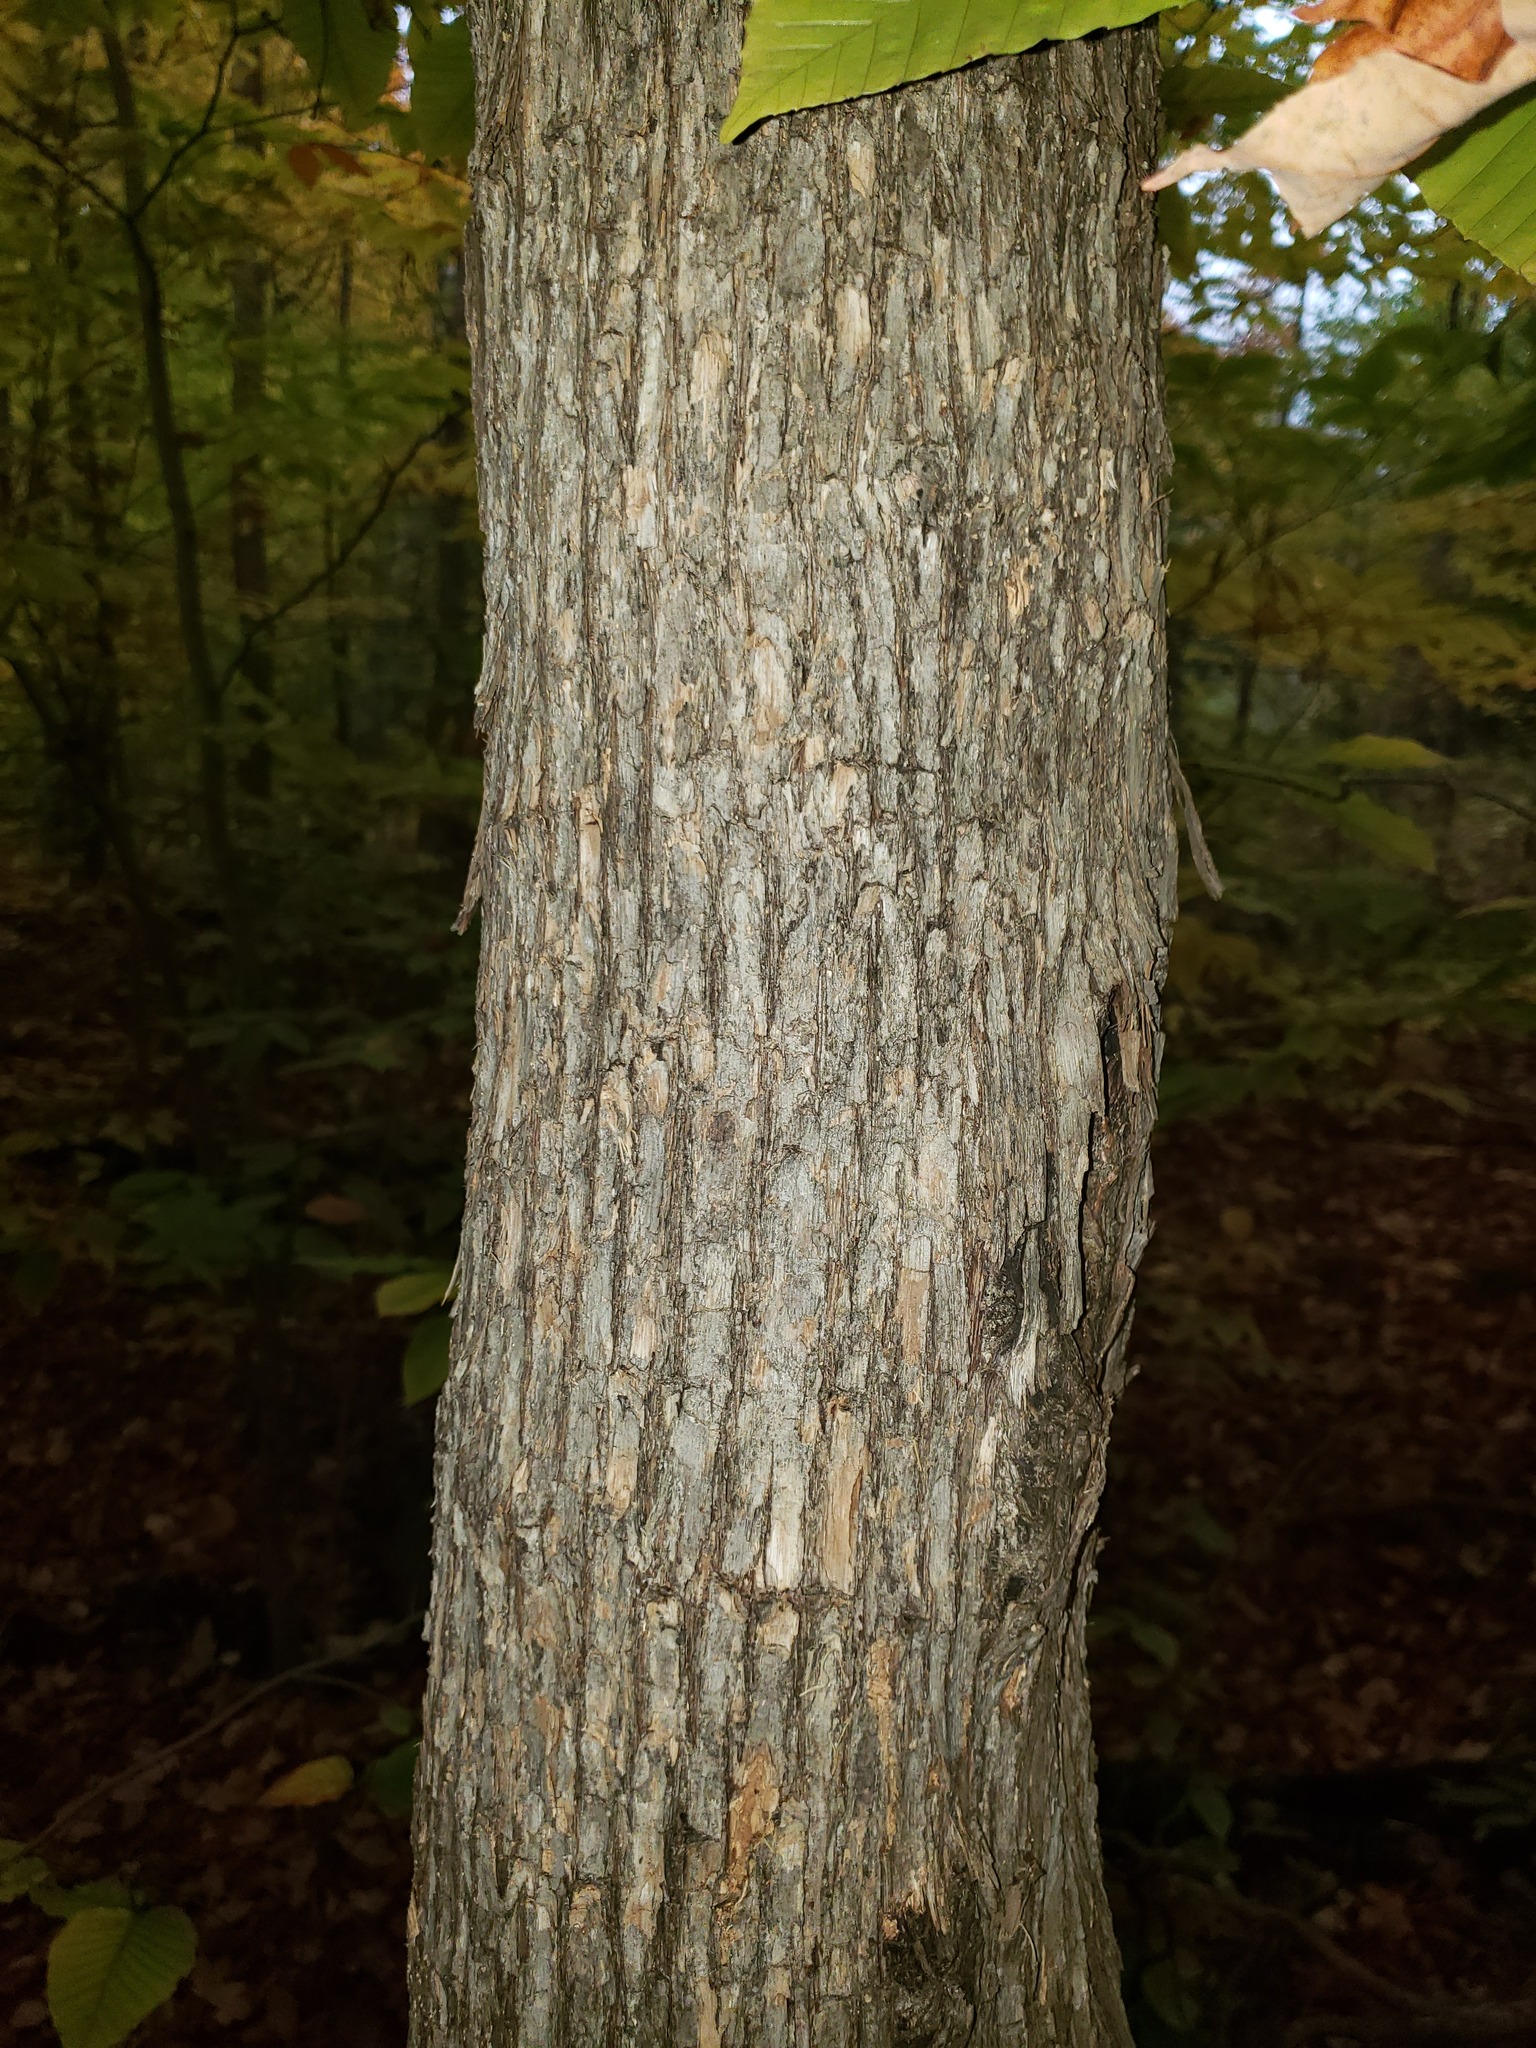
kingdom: Plantae
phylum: Tracheophyta
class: Magnoliopsida
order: Fagales
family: Betulaceae
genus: Ostrya
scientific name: Ostrya virginiana
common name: Ironwood
